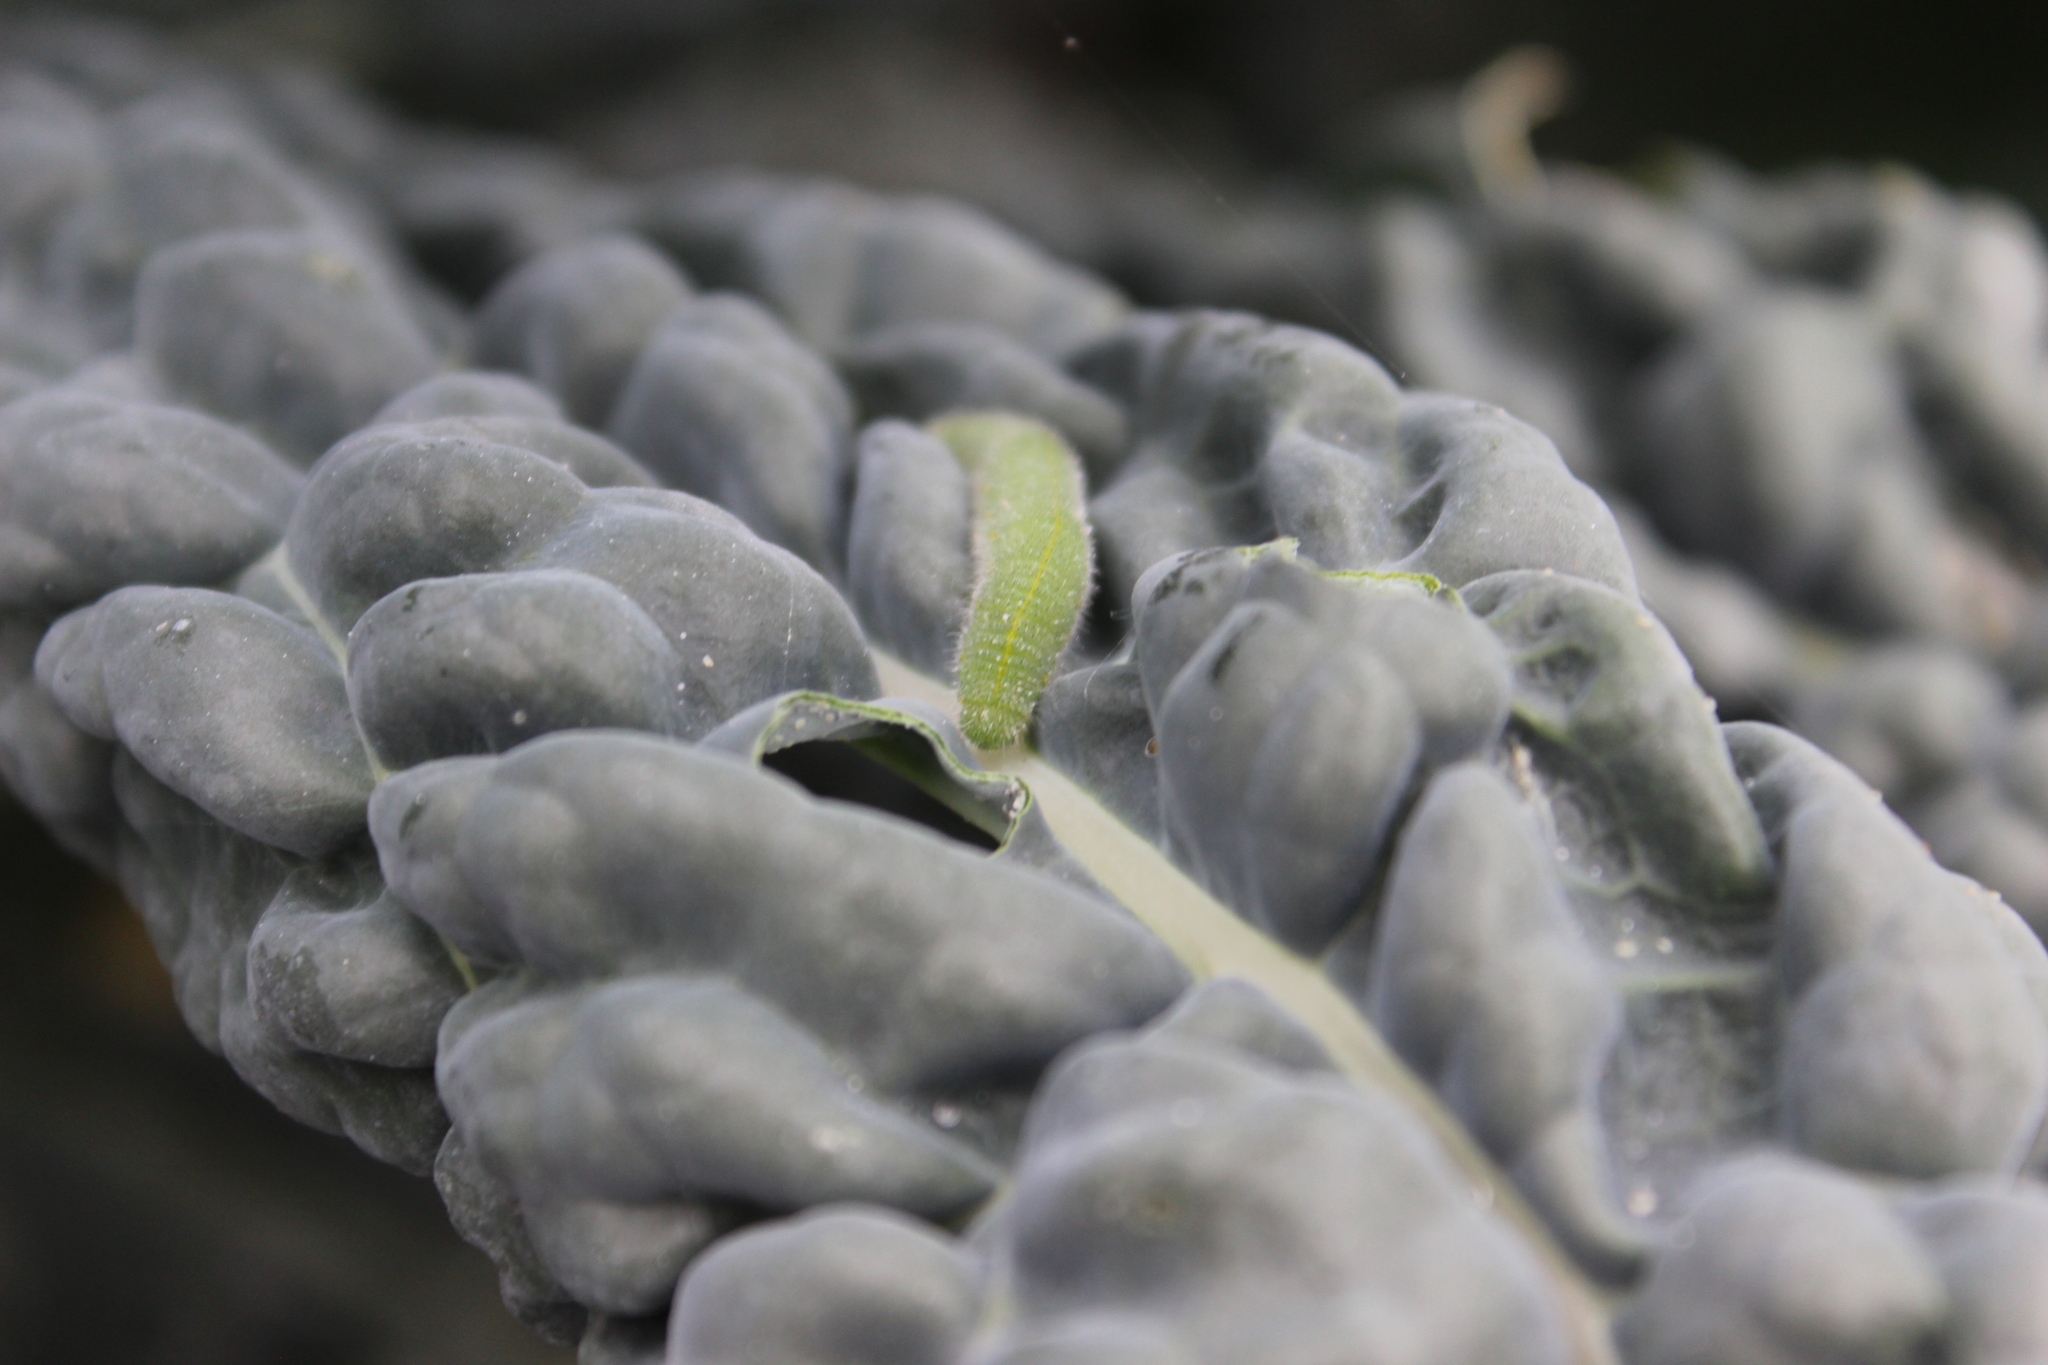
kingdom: Animalia
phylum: Arthropoda
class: Insecta
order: Lepidoptera
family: Pieridae
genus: Pieris
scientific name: Pieris rapae
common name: Small white
